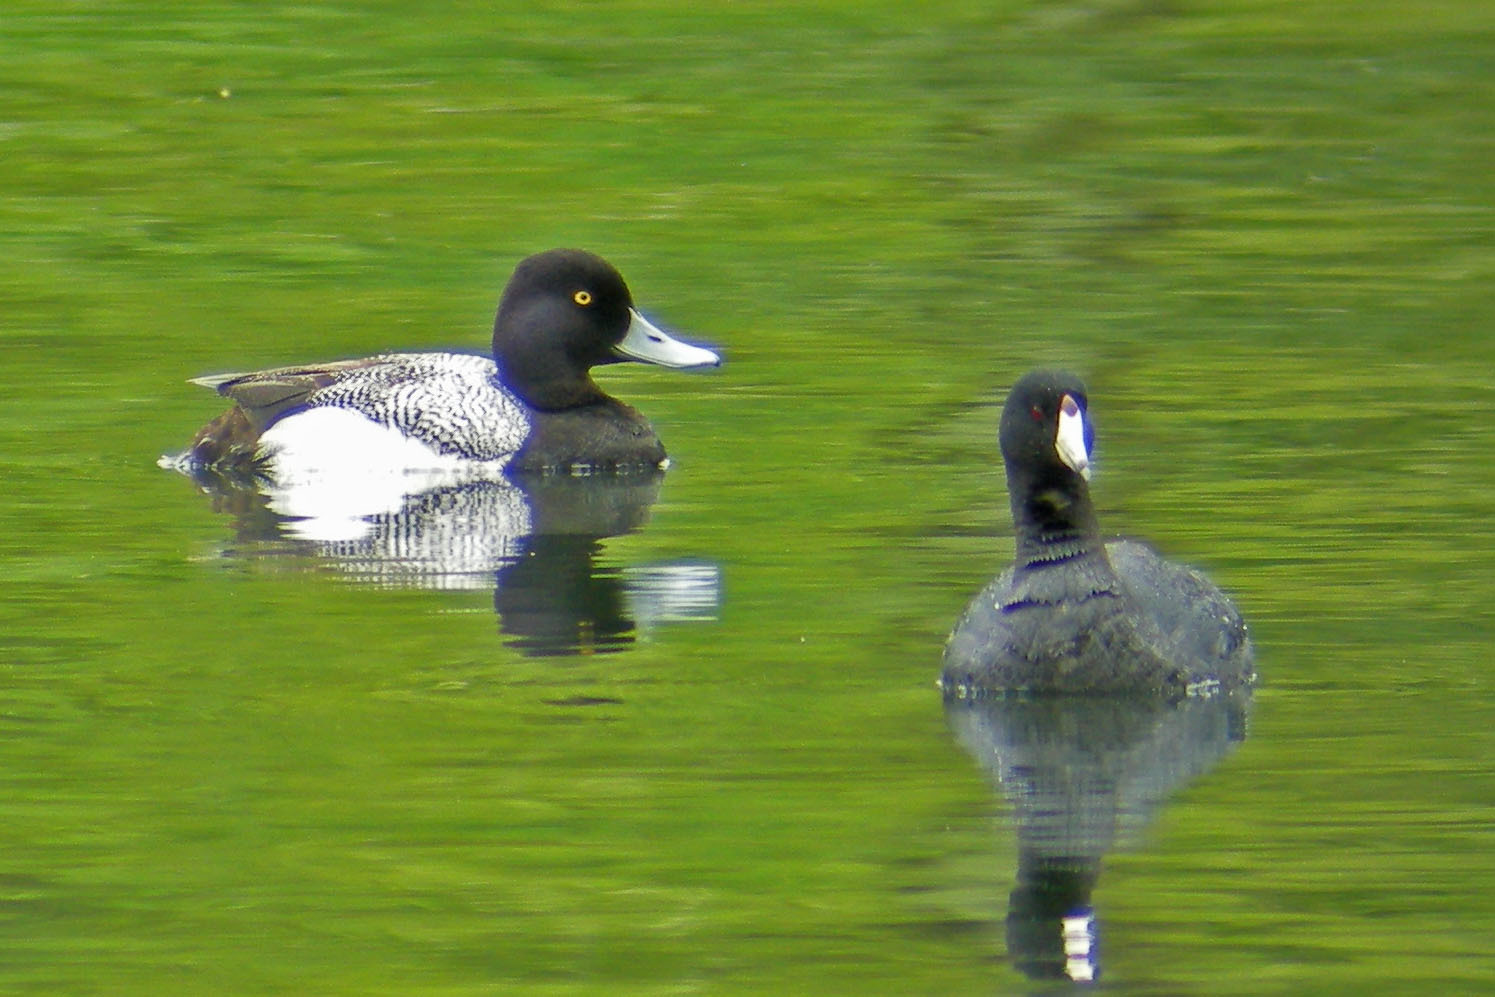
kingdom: Animalia
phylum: Chordata
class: Aves
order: Gruiformes
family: Rallidae
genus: Fulica
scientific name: Fulica americana
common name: American coot
